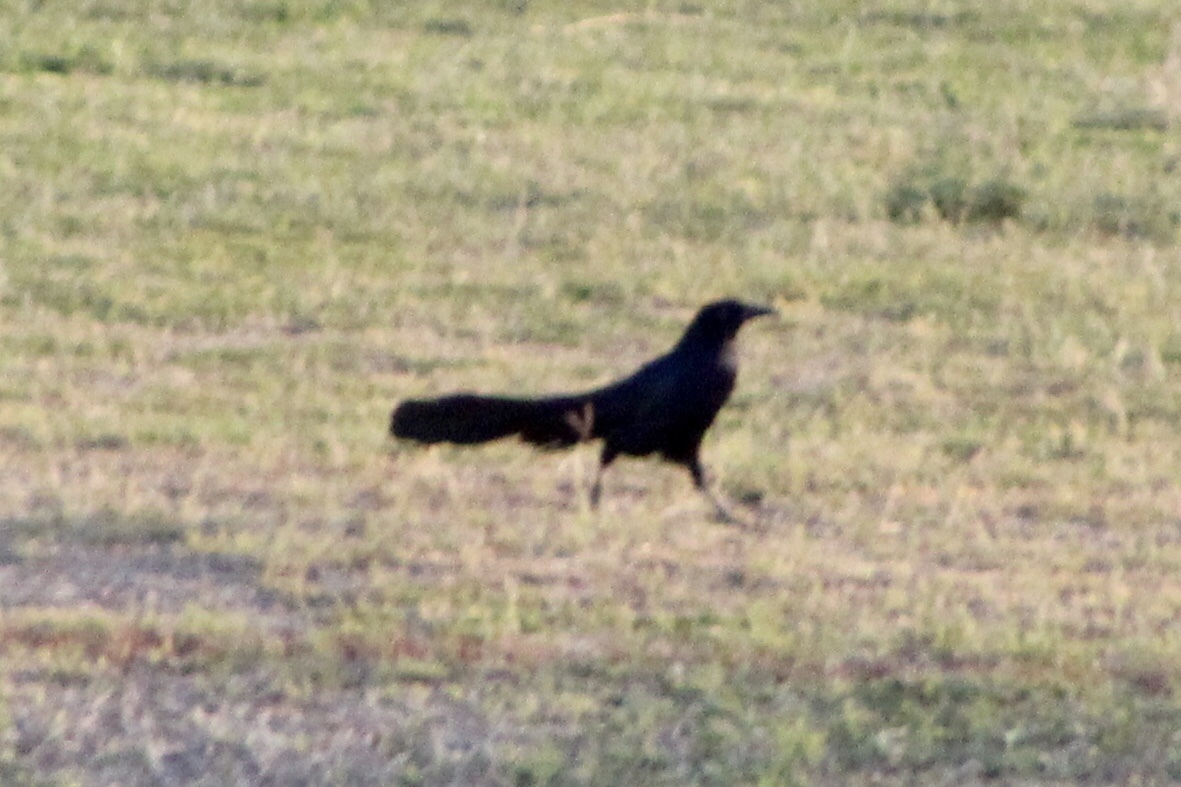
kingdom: Animalia
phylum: Chordata
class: Aves
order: Passeriformes
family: Icteridae
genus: Quiscalus
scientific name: Quiscalus mexicanus
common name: Great-tailed grackle
